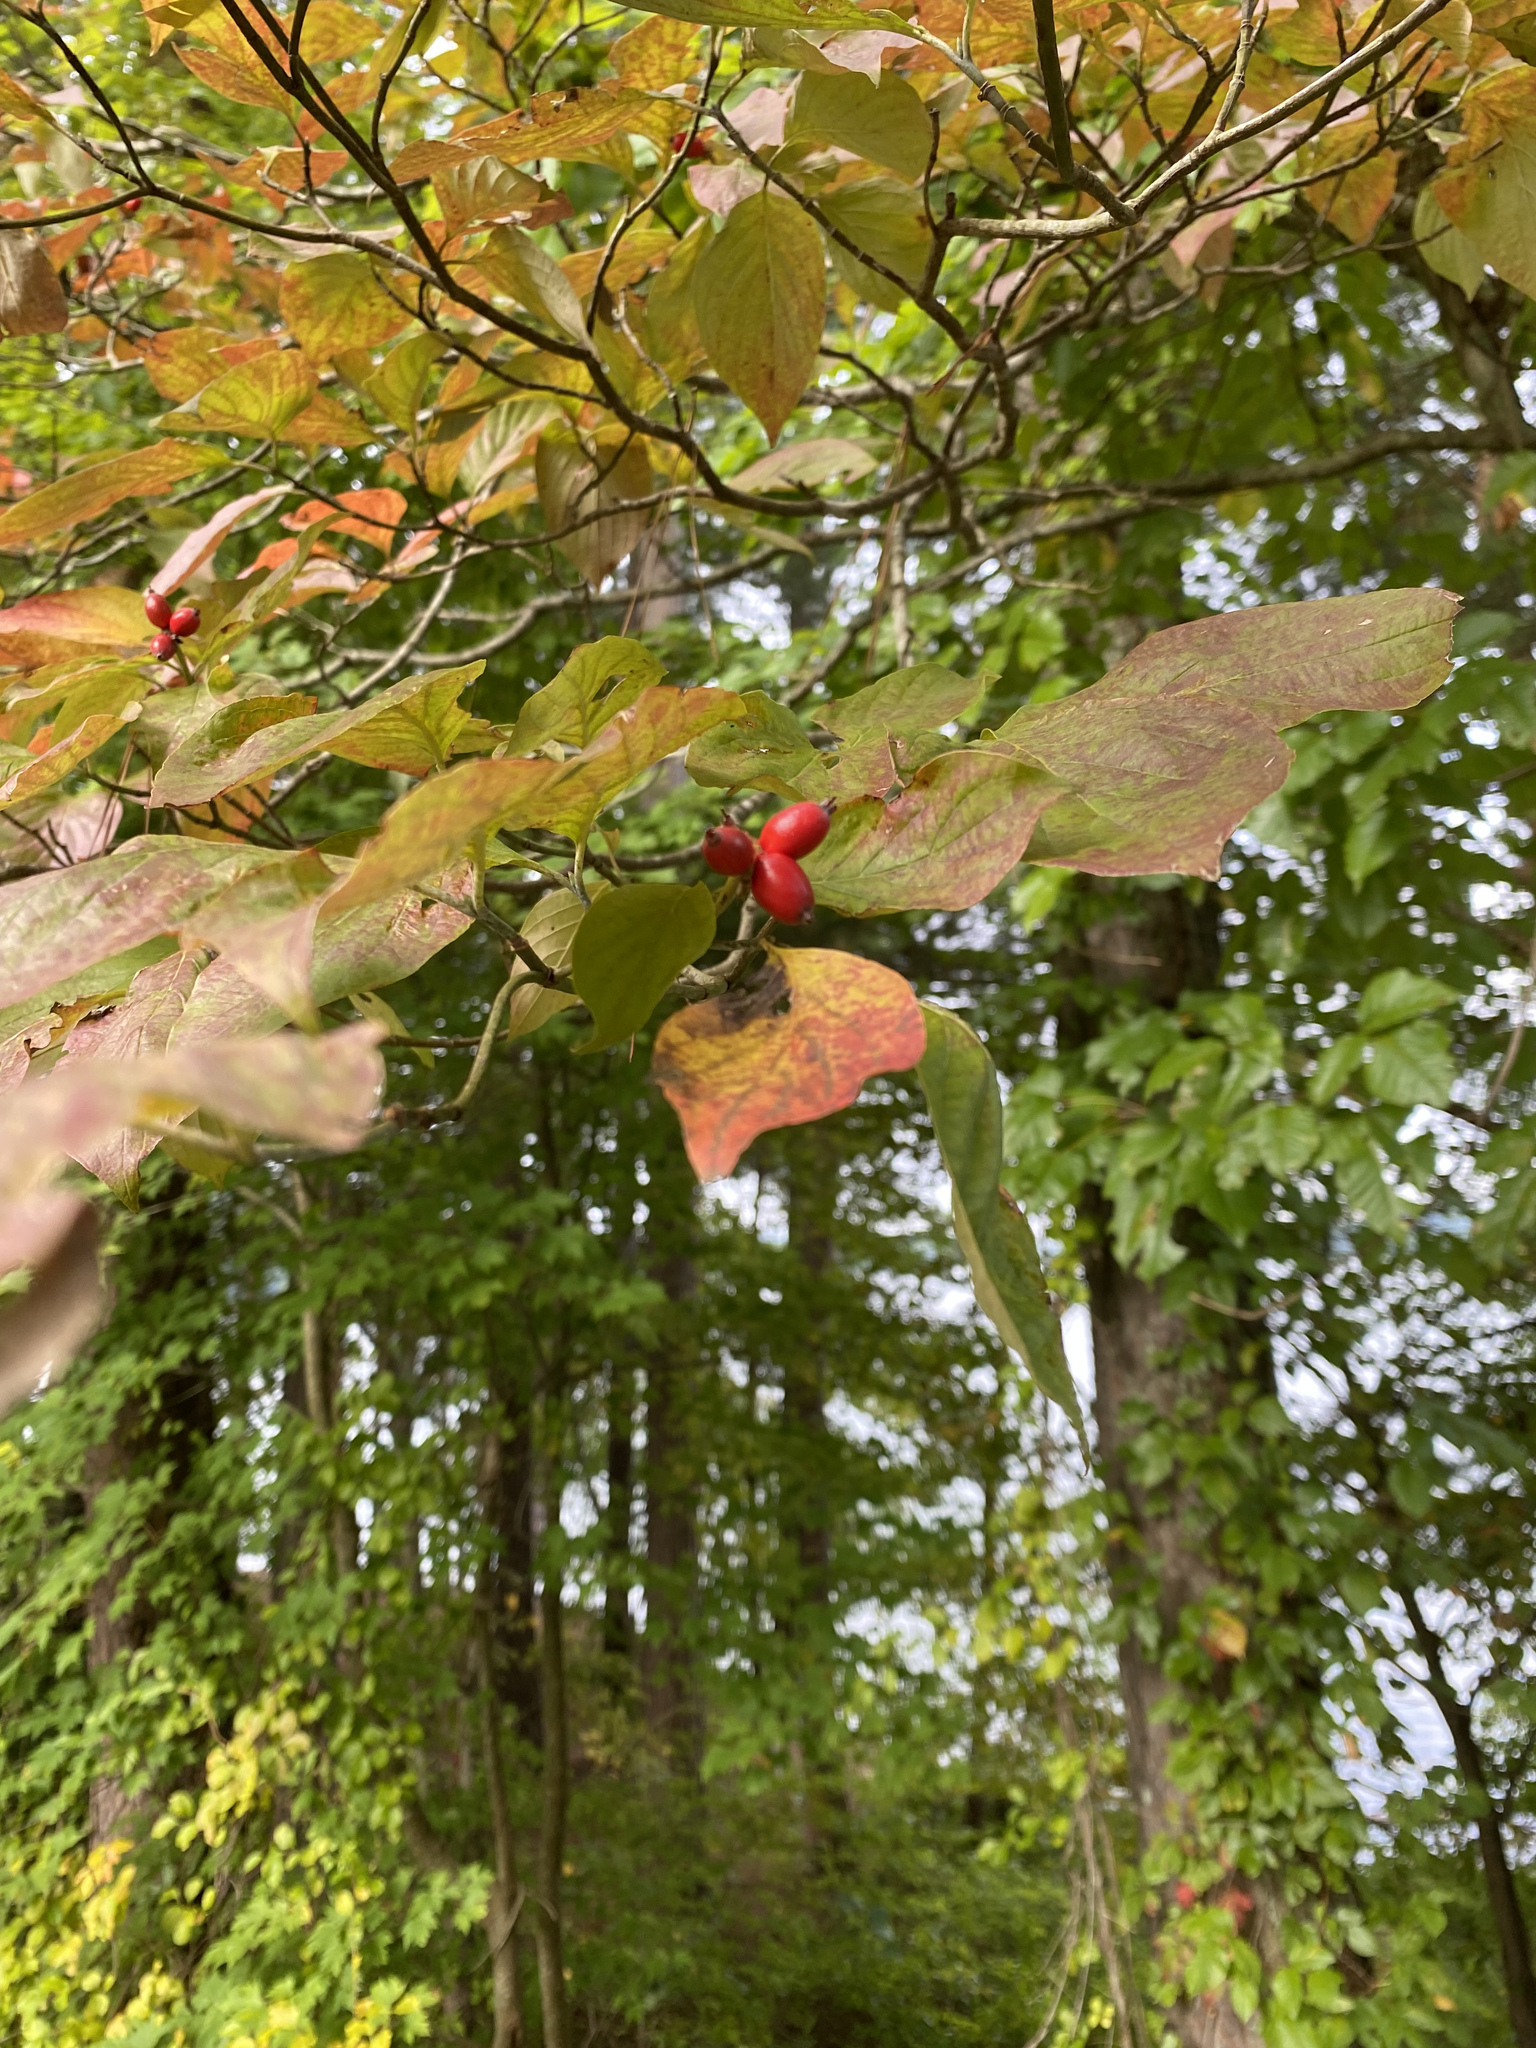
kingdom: Plantae
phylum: Tracheophyta
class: Magnoliopsida
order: Cornales
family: Cornaceae
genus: Cornus
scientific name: Cornus florida
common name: Flowering dogwood
